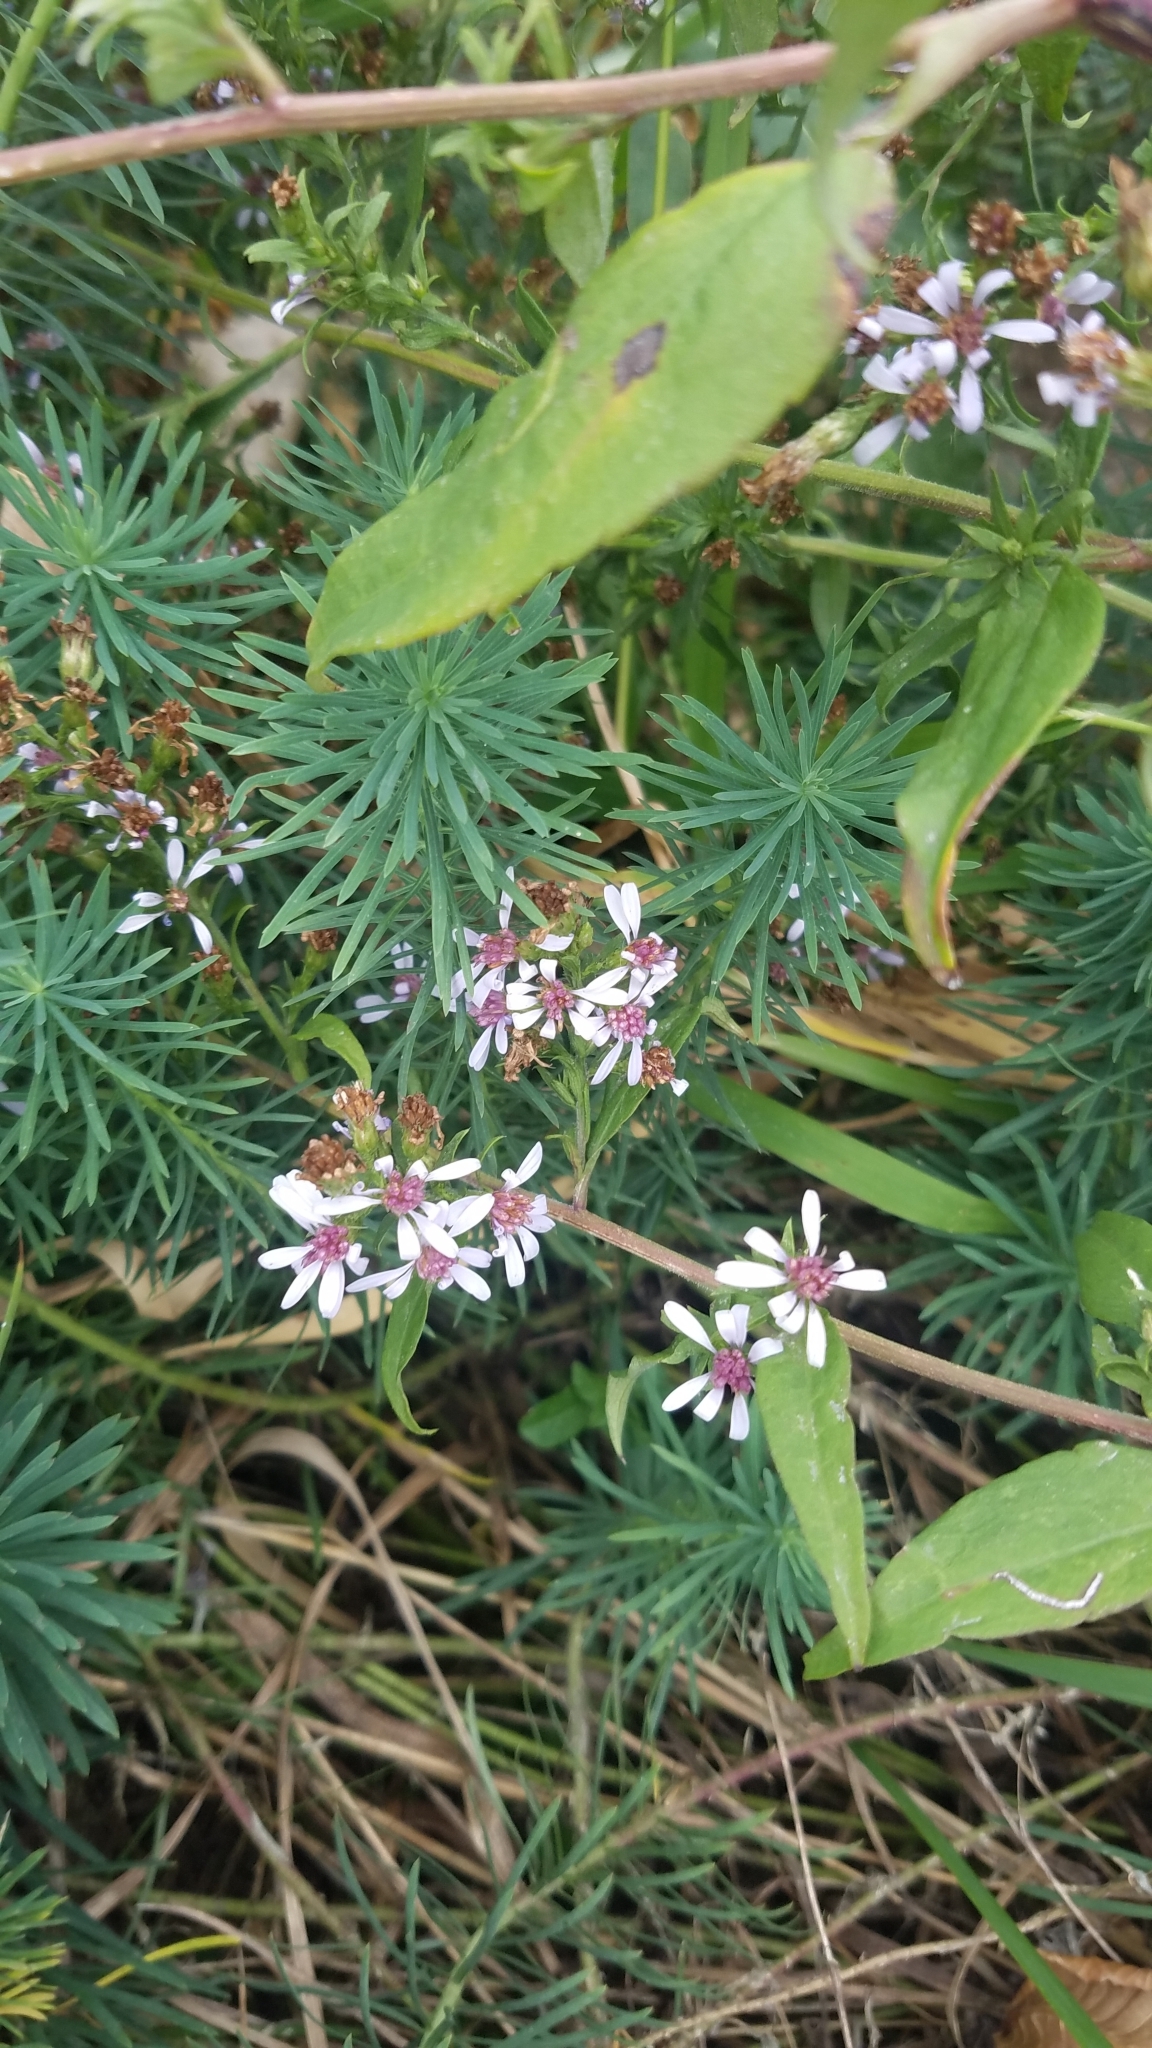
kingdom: Plantae
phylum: Tracheophyta
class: Magnoliopsida
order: Asterales
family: Asteraceae
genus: Symphyotrichum
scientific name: Symphyotrichum drummondii
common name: Drummond's aster
